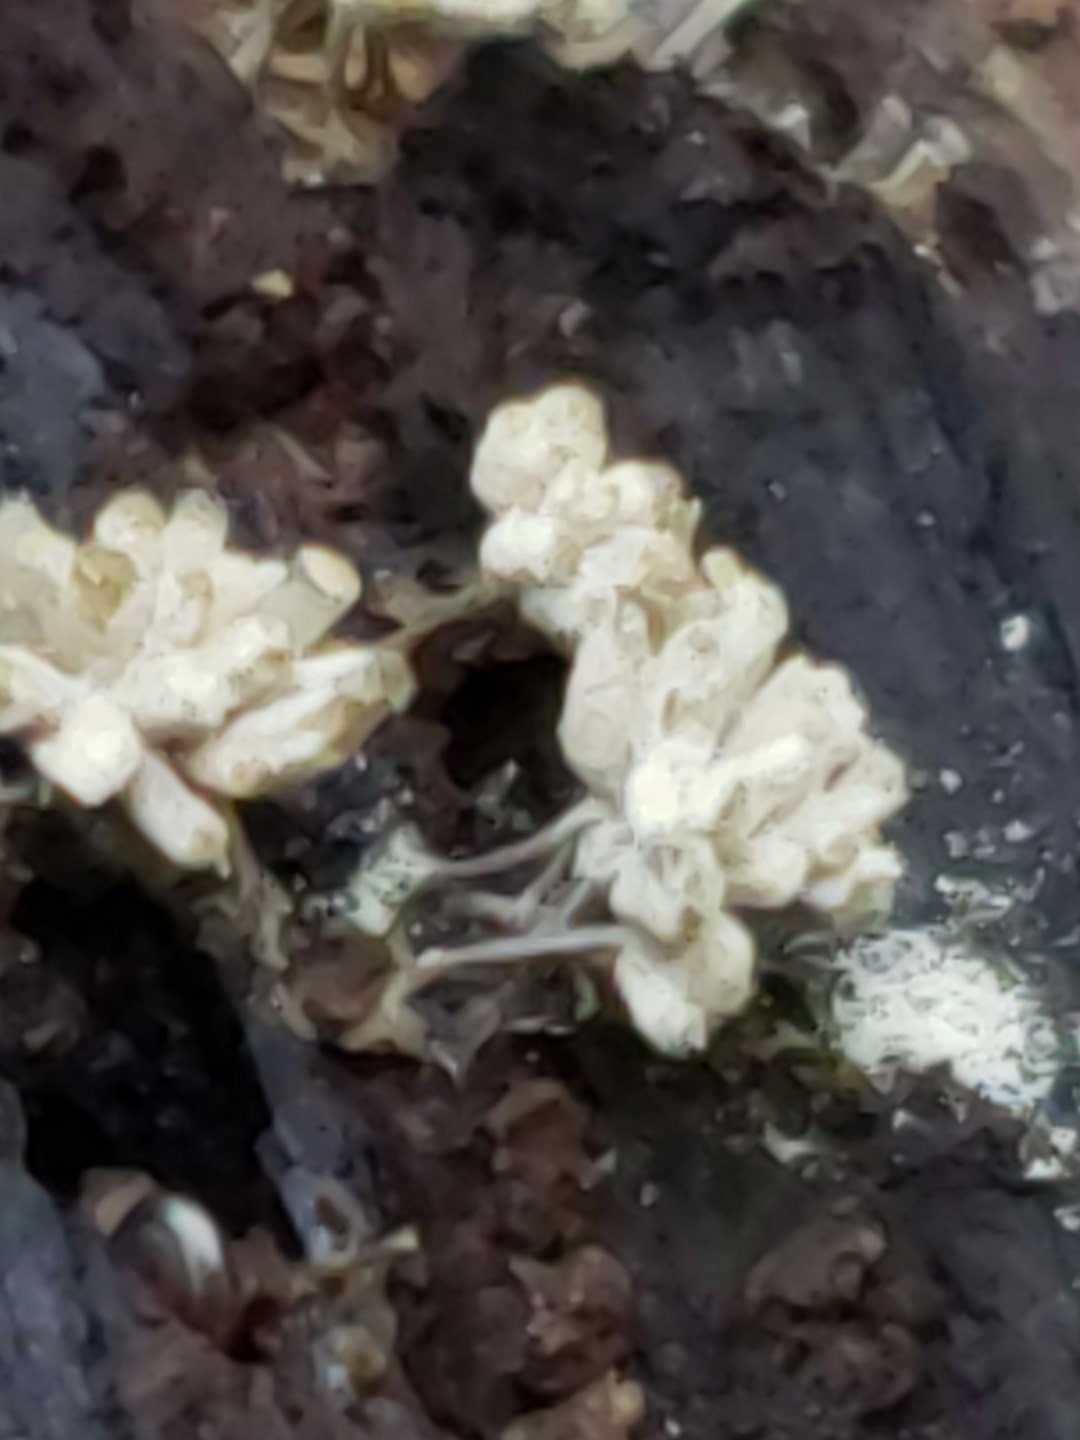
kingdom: Protozoa
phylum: Mycetozoa
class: Myxomycetes
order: Trichiales
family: Arcyriaceae
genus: Arcyria
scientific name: Arcyria cinerea
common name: White carnival candy slime mold
